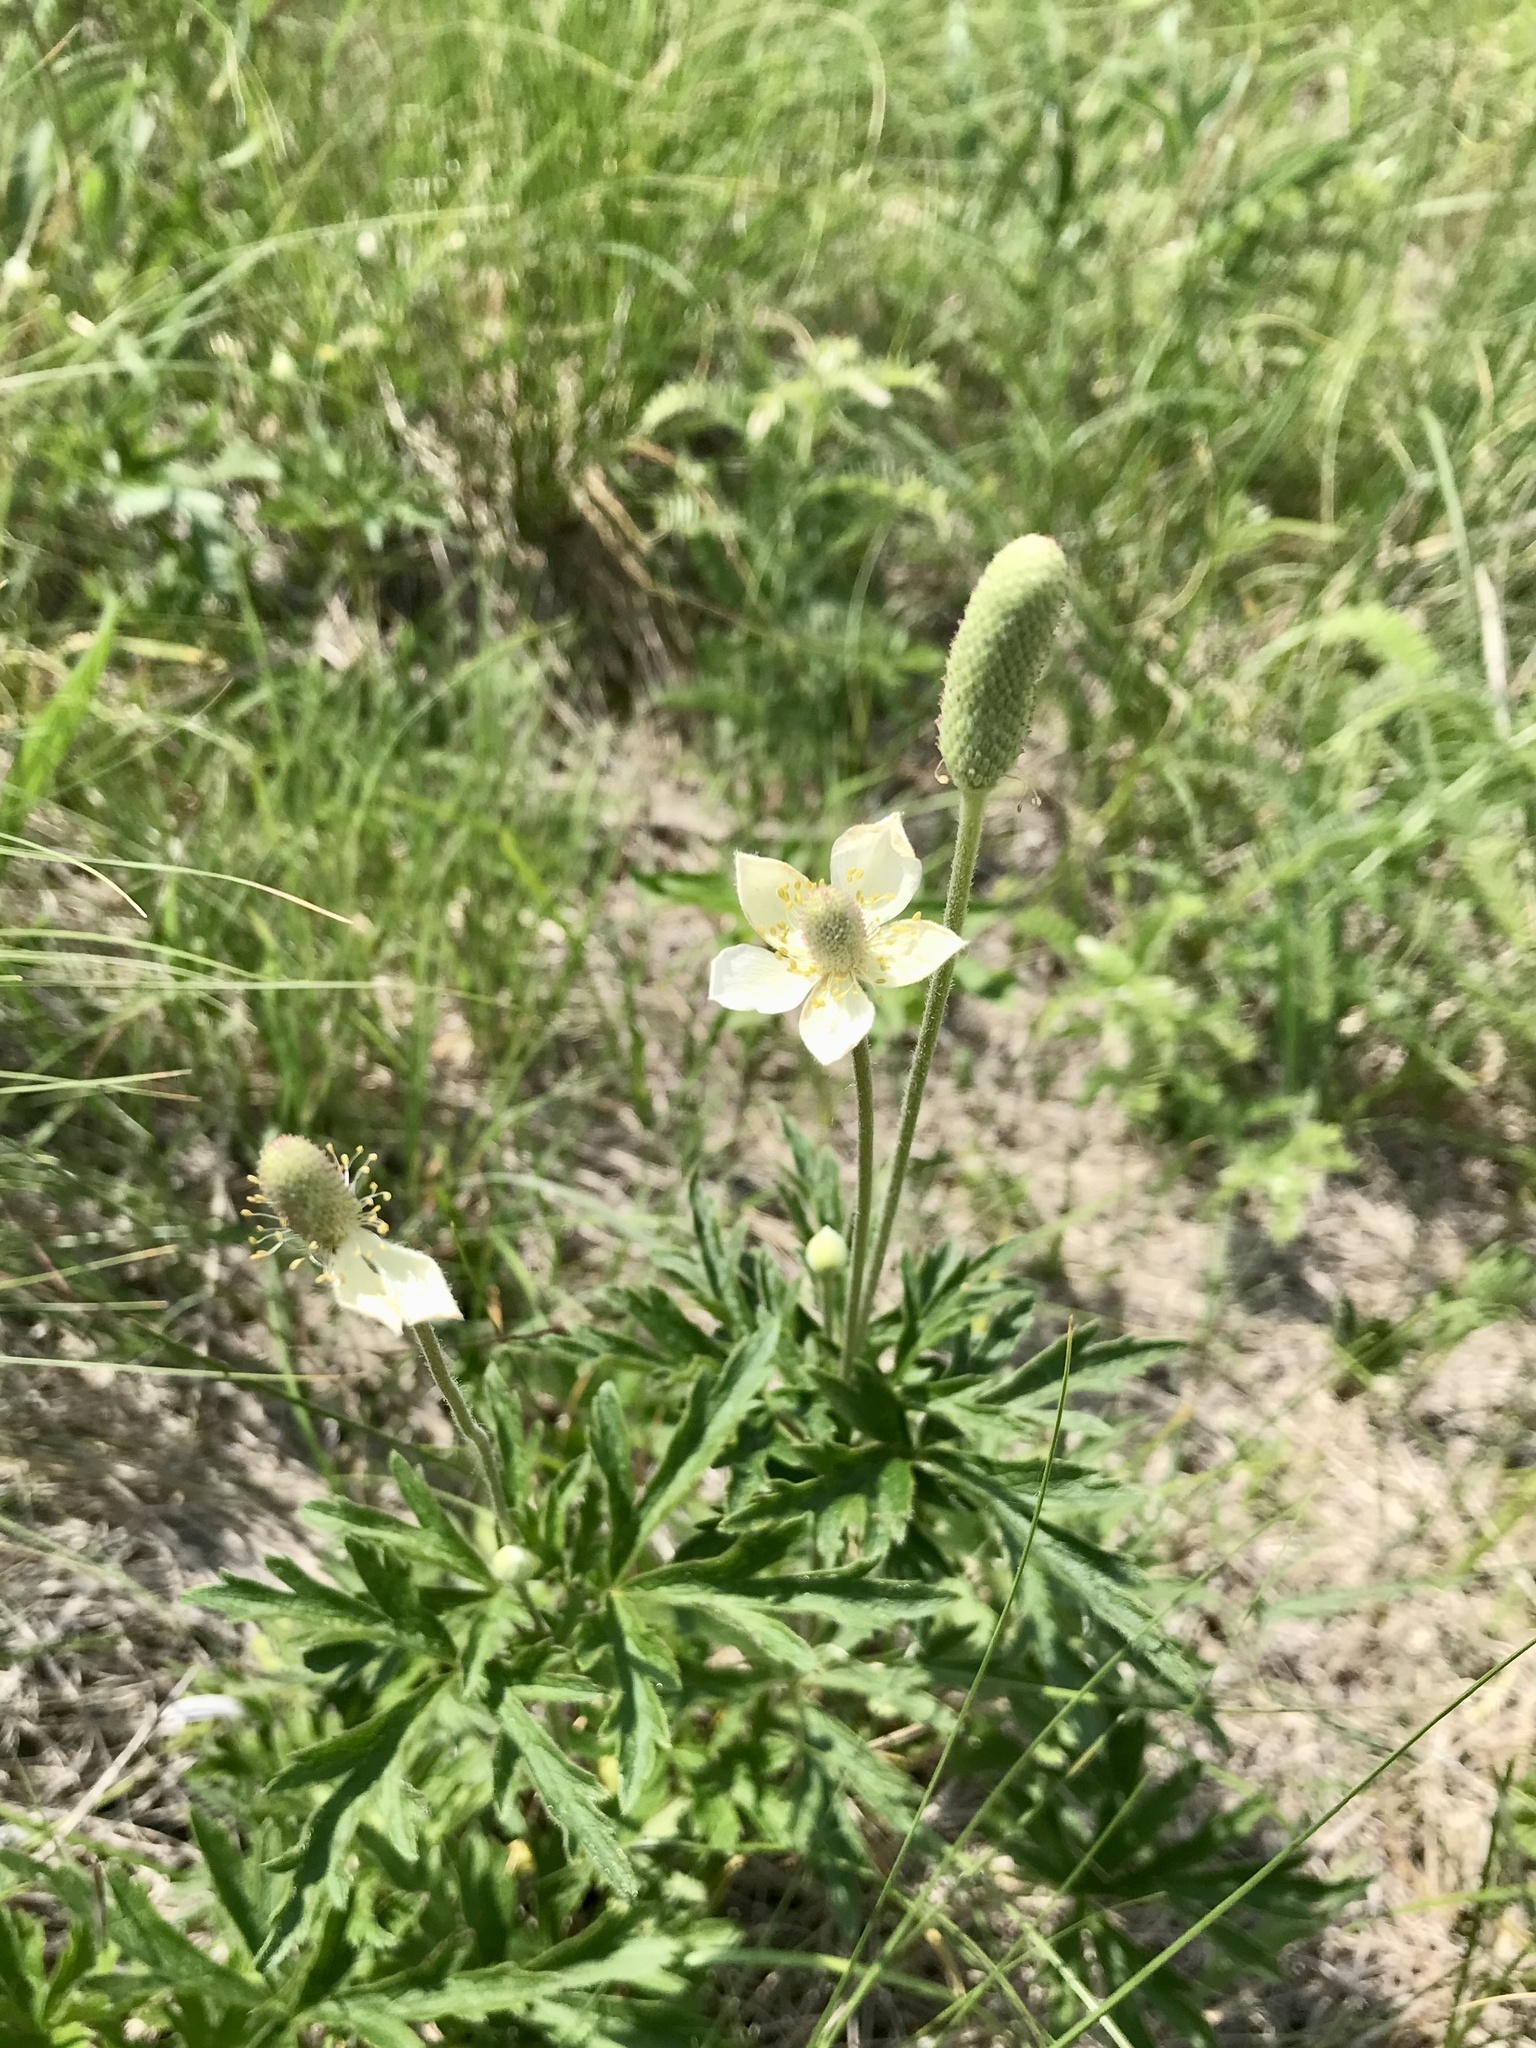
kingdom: Plantae
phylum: Tracheophyta
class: Magnoliopsida
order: Ranunculales
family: Ranunculaceae
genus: Anemone
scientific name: Anemone cylindrica
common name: Candle anemone
